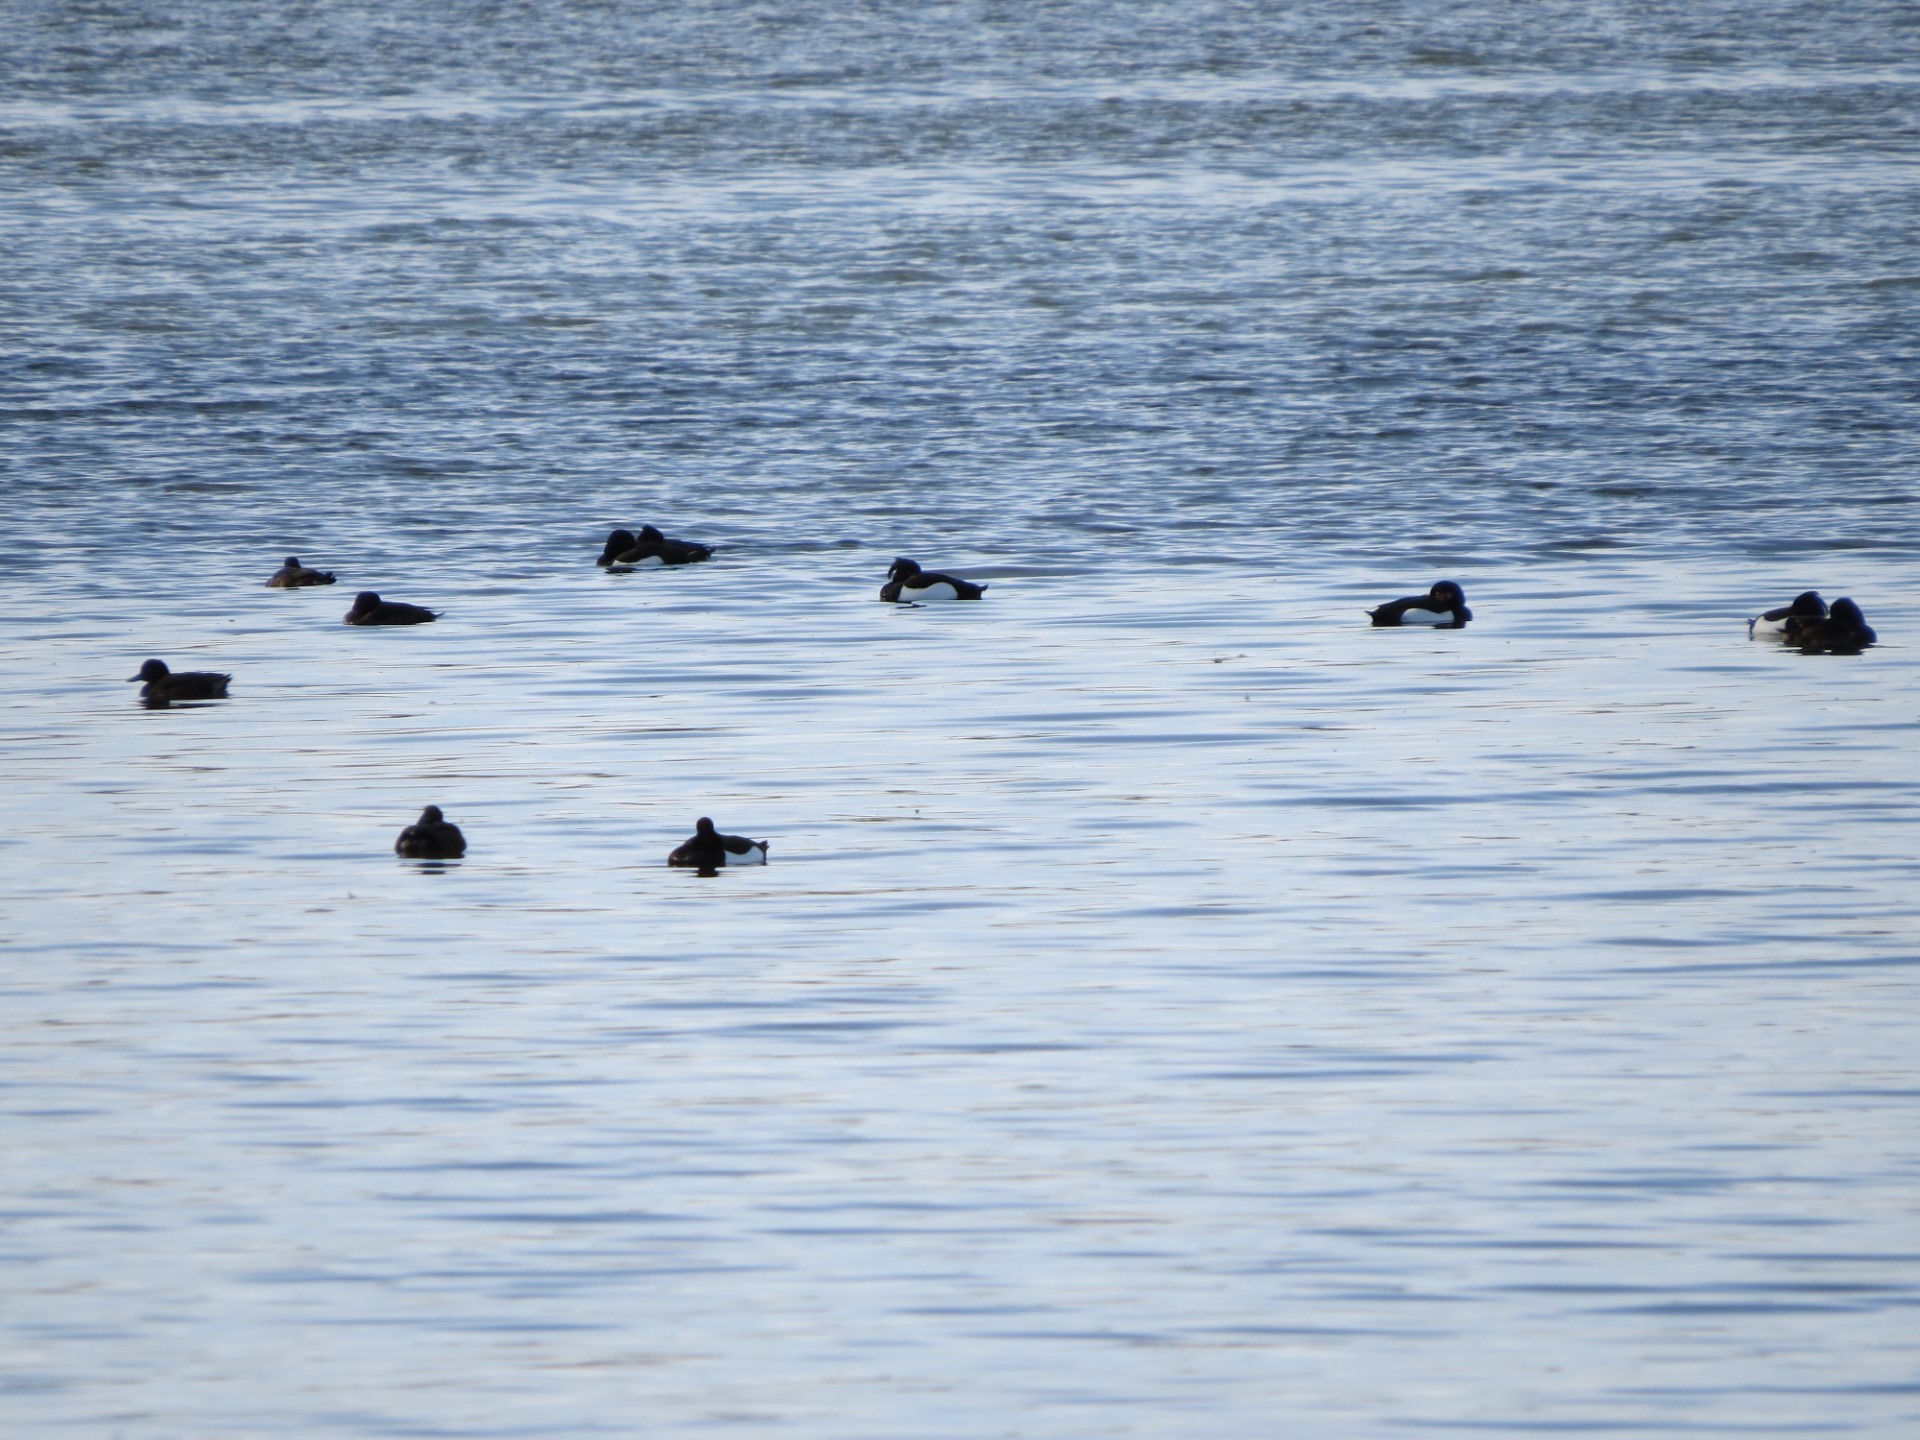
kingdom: Animalia
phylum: Chordata
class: Aves
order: Anseriformes
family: Anatidae
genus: Aythya
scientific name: Aythya fuligula
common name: Tufted duck
